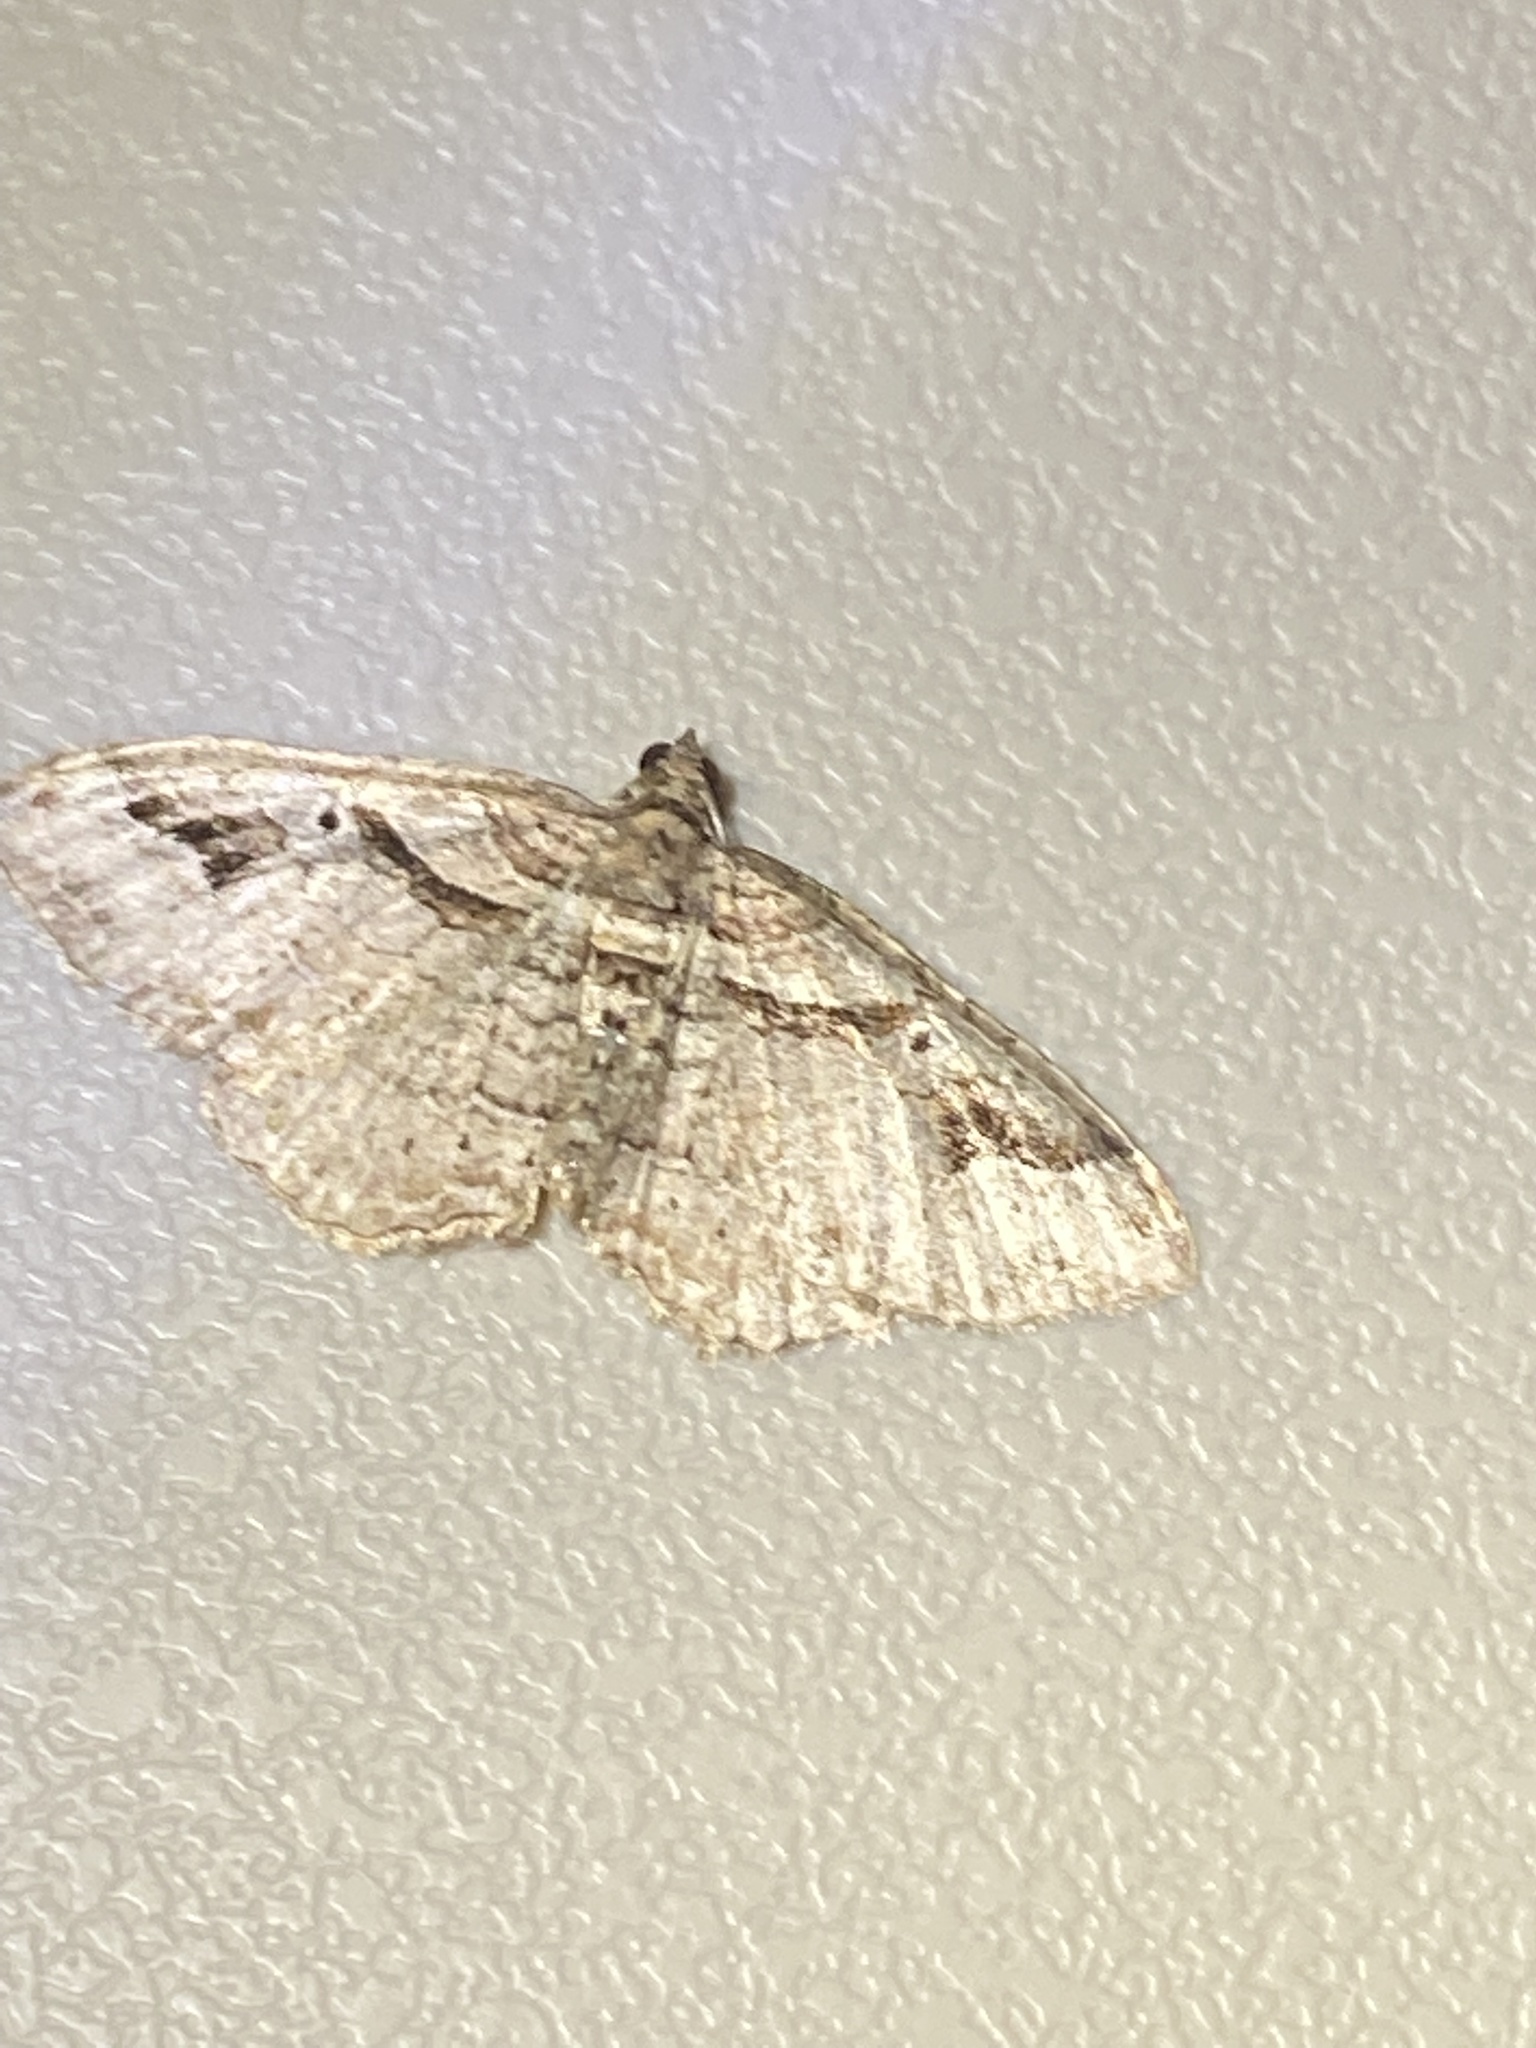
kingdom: Animalia
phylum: Arthropoda
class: Insecta
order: Lepidoptera
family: Geometridae
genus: Costaconvexa
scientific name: Costaconvexa centrostrigaria
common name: Bent-line carpet
